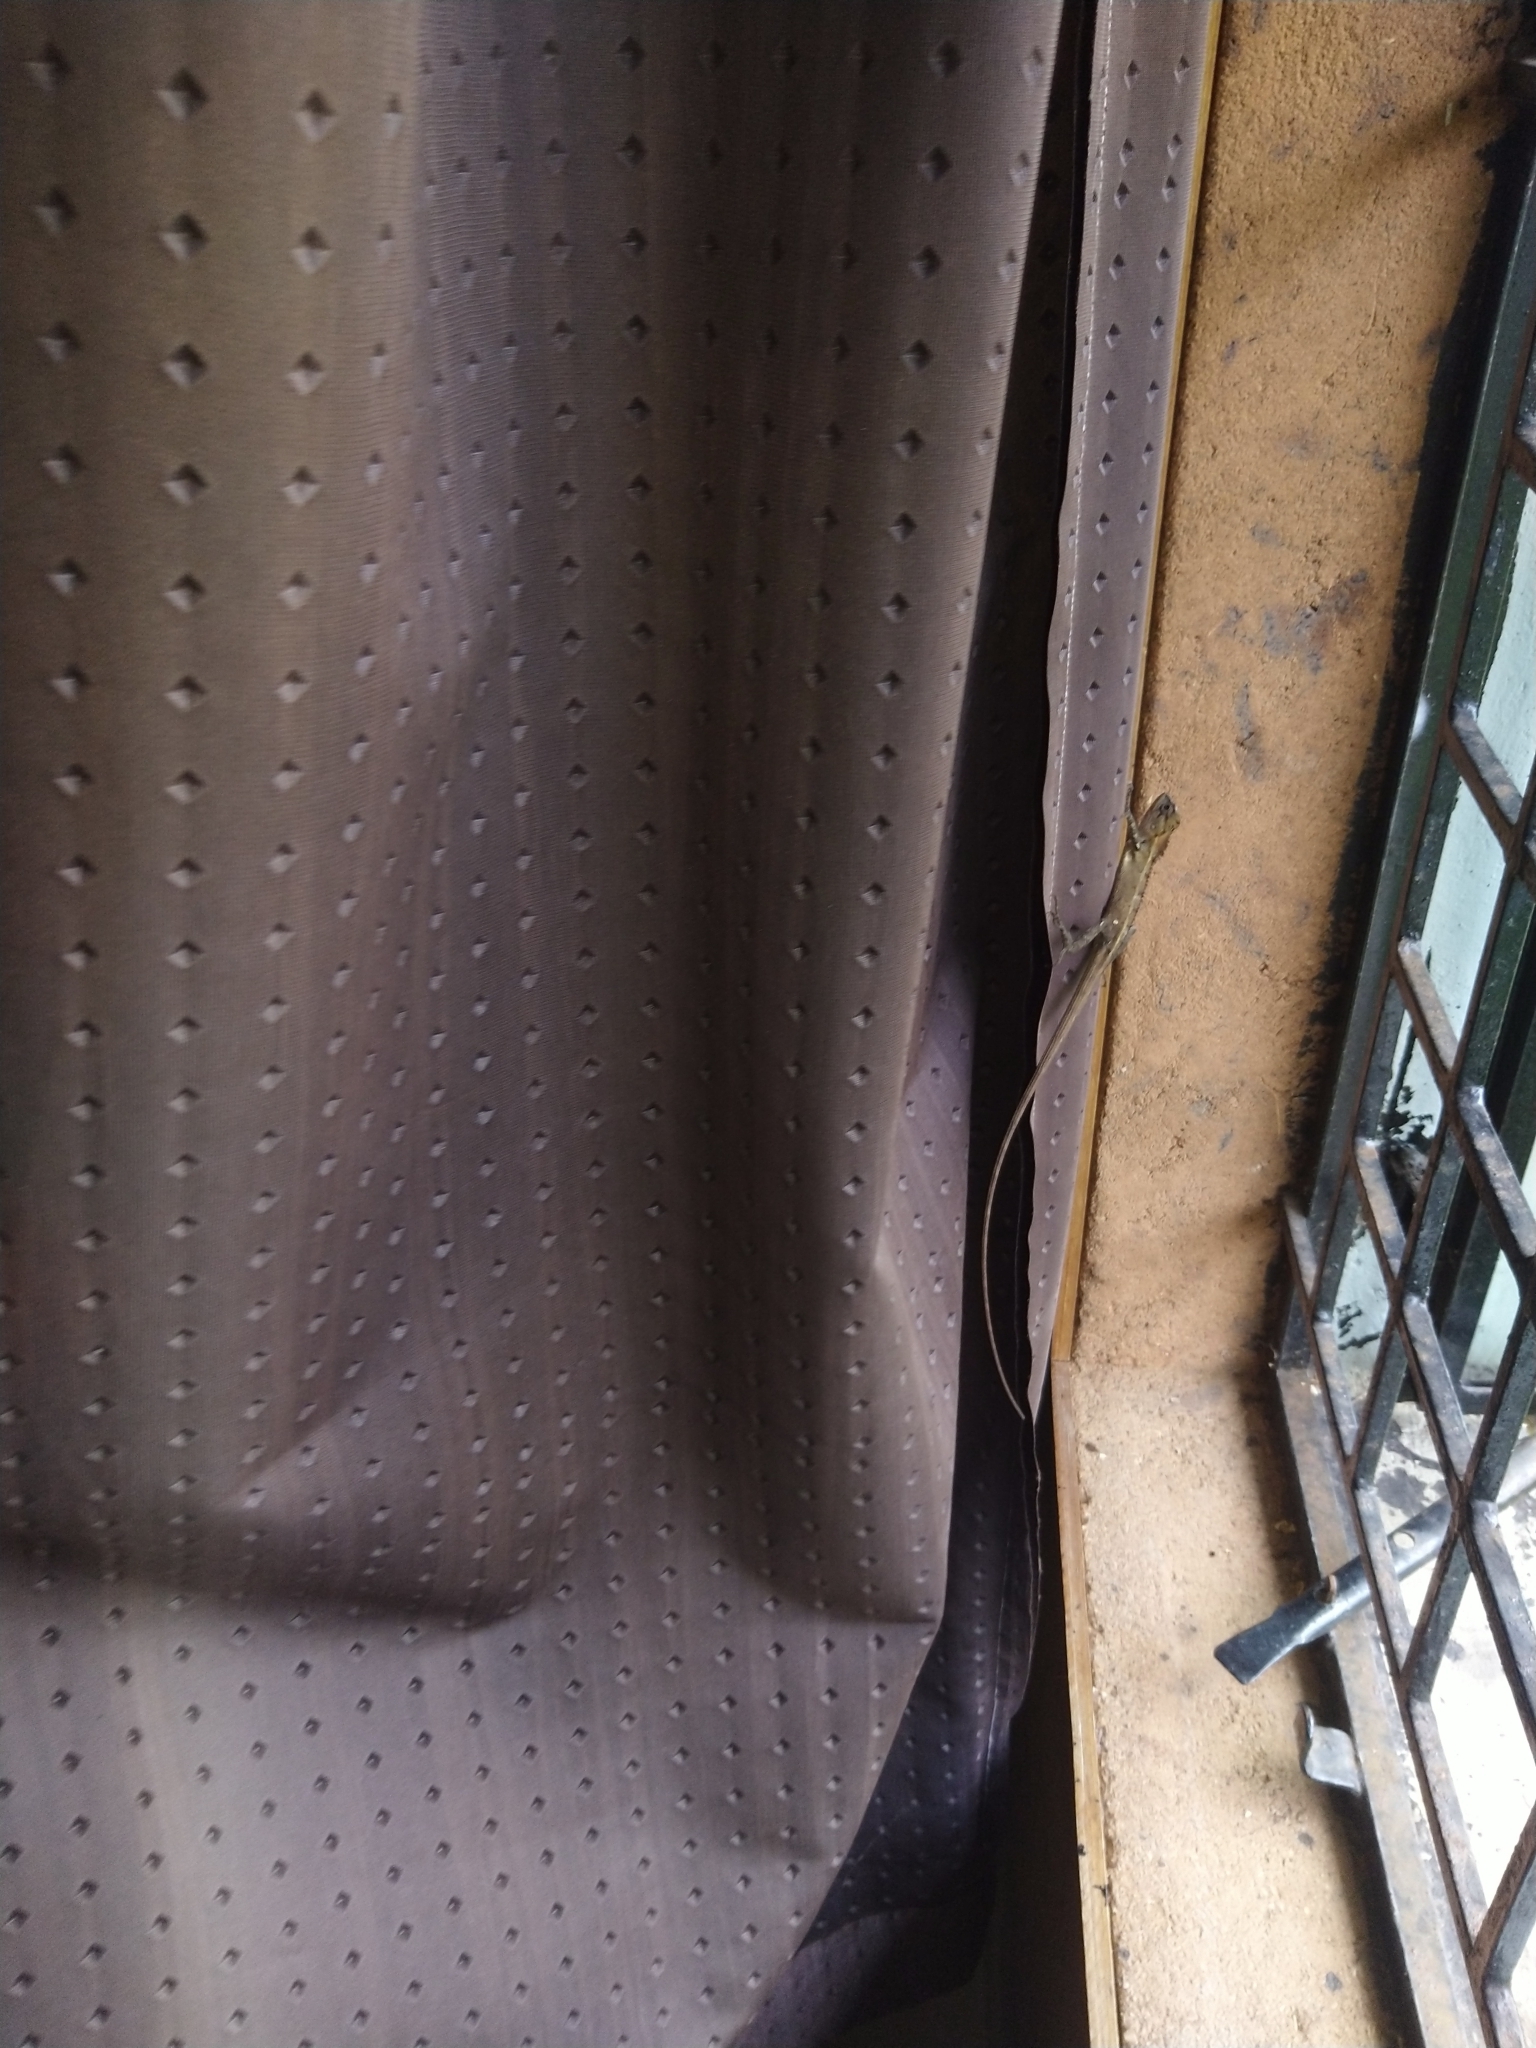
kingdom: Animalia
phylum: Chordata
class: Squamata
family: Agamidae
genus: Calotes
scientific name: Calotes versicolor
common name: Oriental garden lizard
